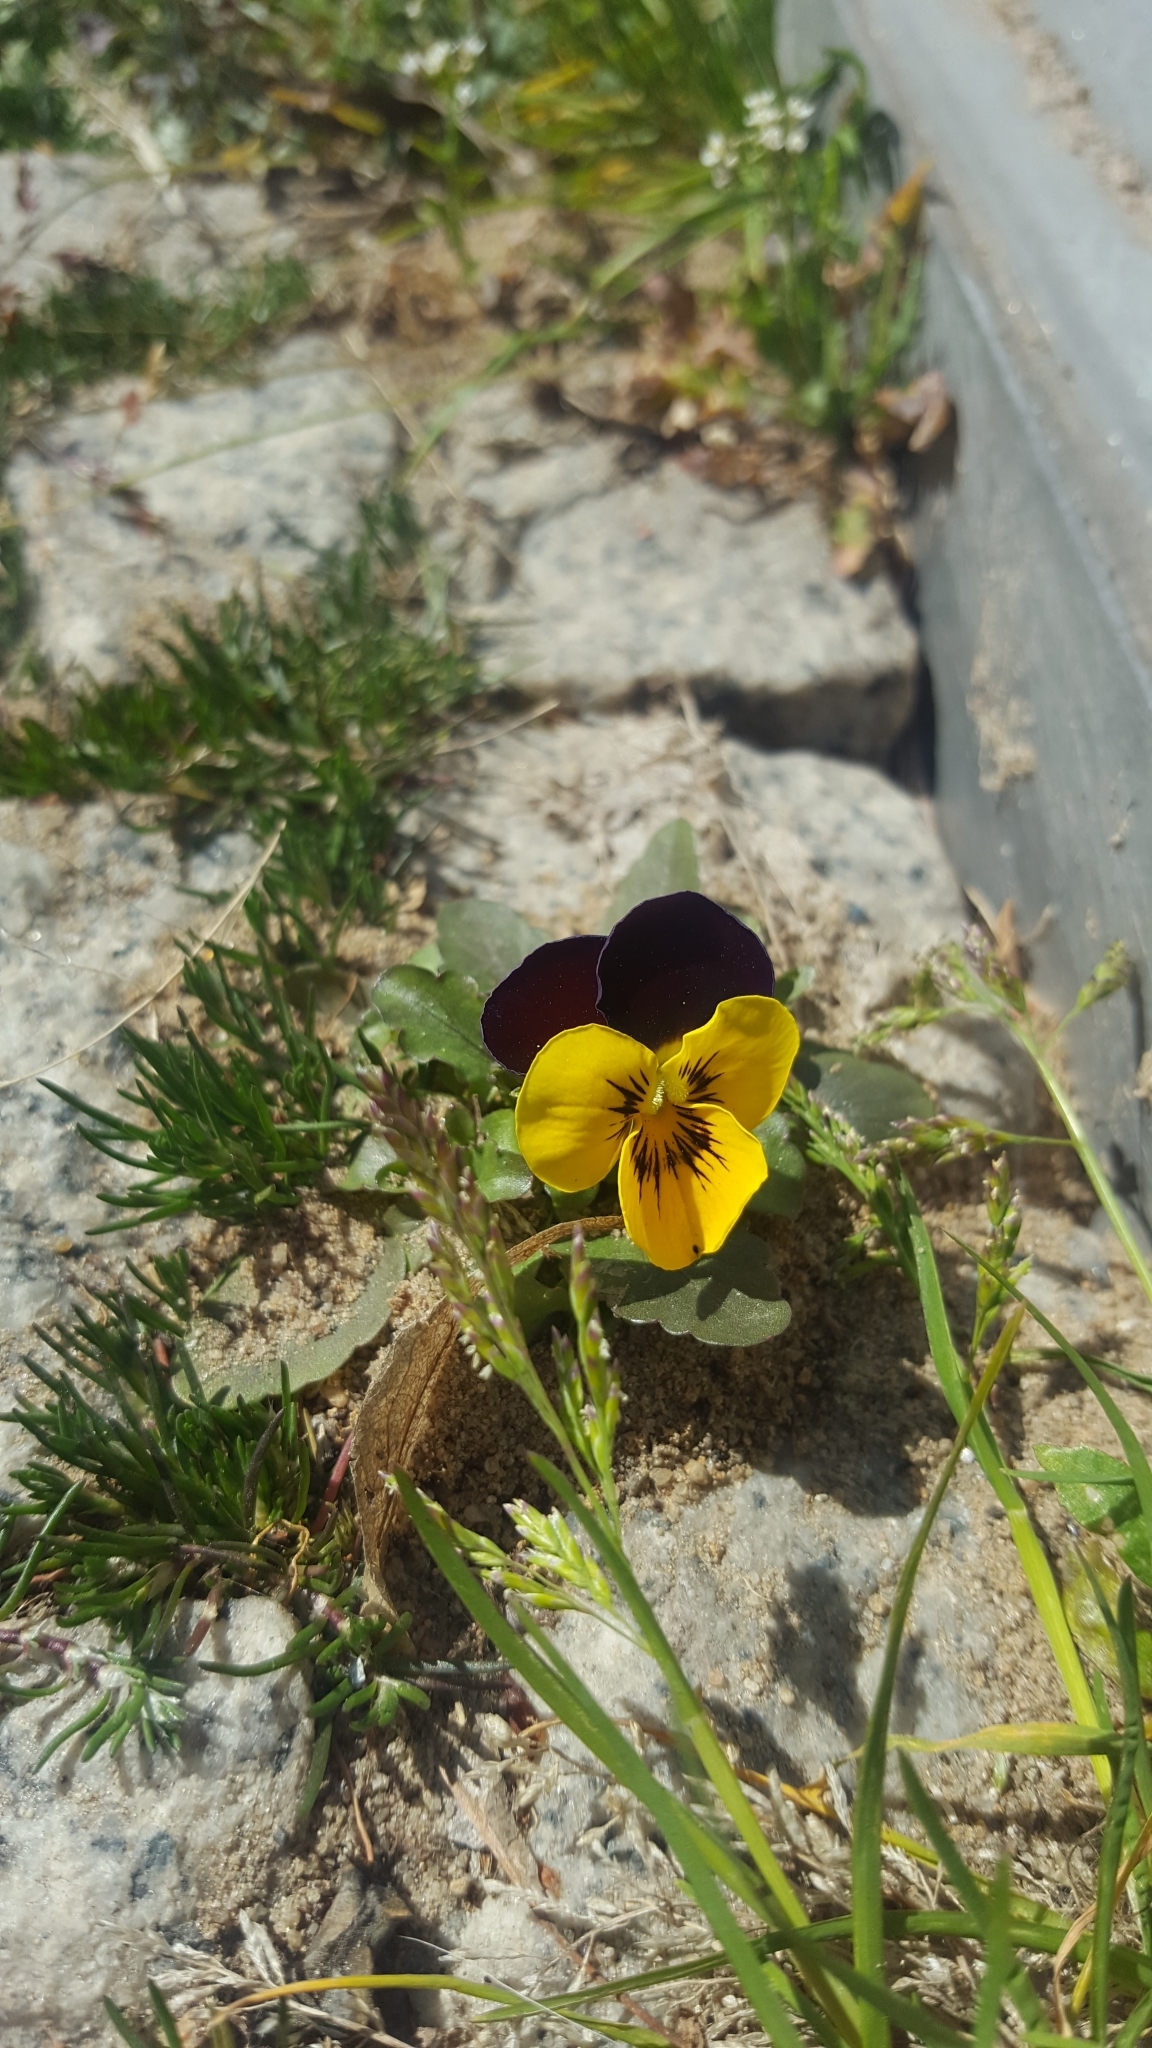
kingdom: Plantae
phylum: Tracheophyta
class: Magnoliopsida
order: Malpighiales
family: Violaceae
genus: Viola
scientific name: Viola wittrockiana
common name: Garden pansy
